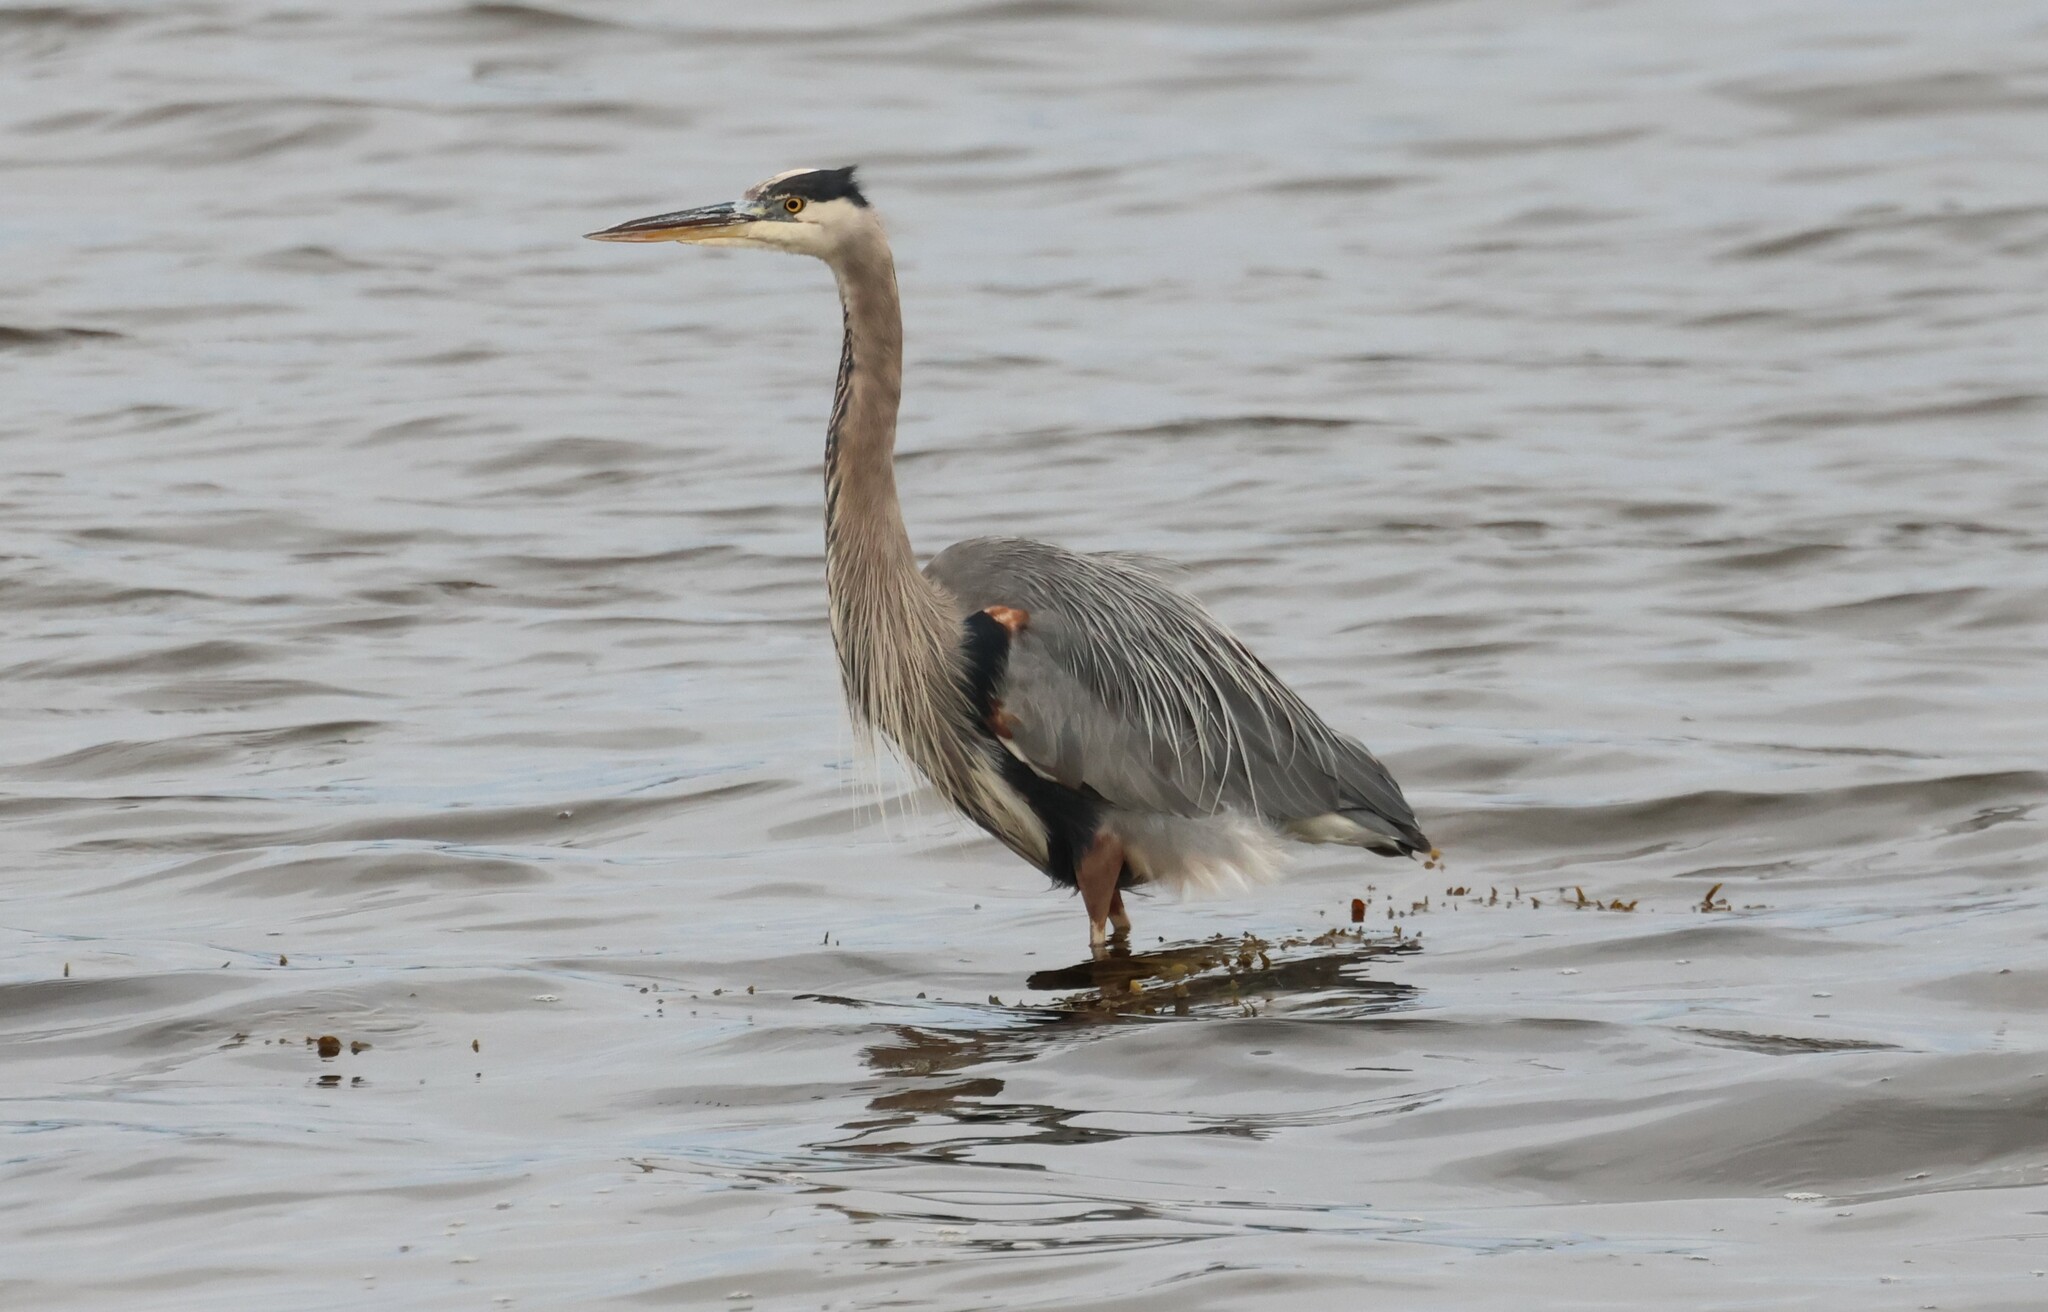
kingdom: Animalia
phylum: Chordata
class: Aves
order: Pelecaniformes
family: Ardeidae
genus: Ardea
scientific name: Ardea herodias
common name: Great blue heron
